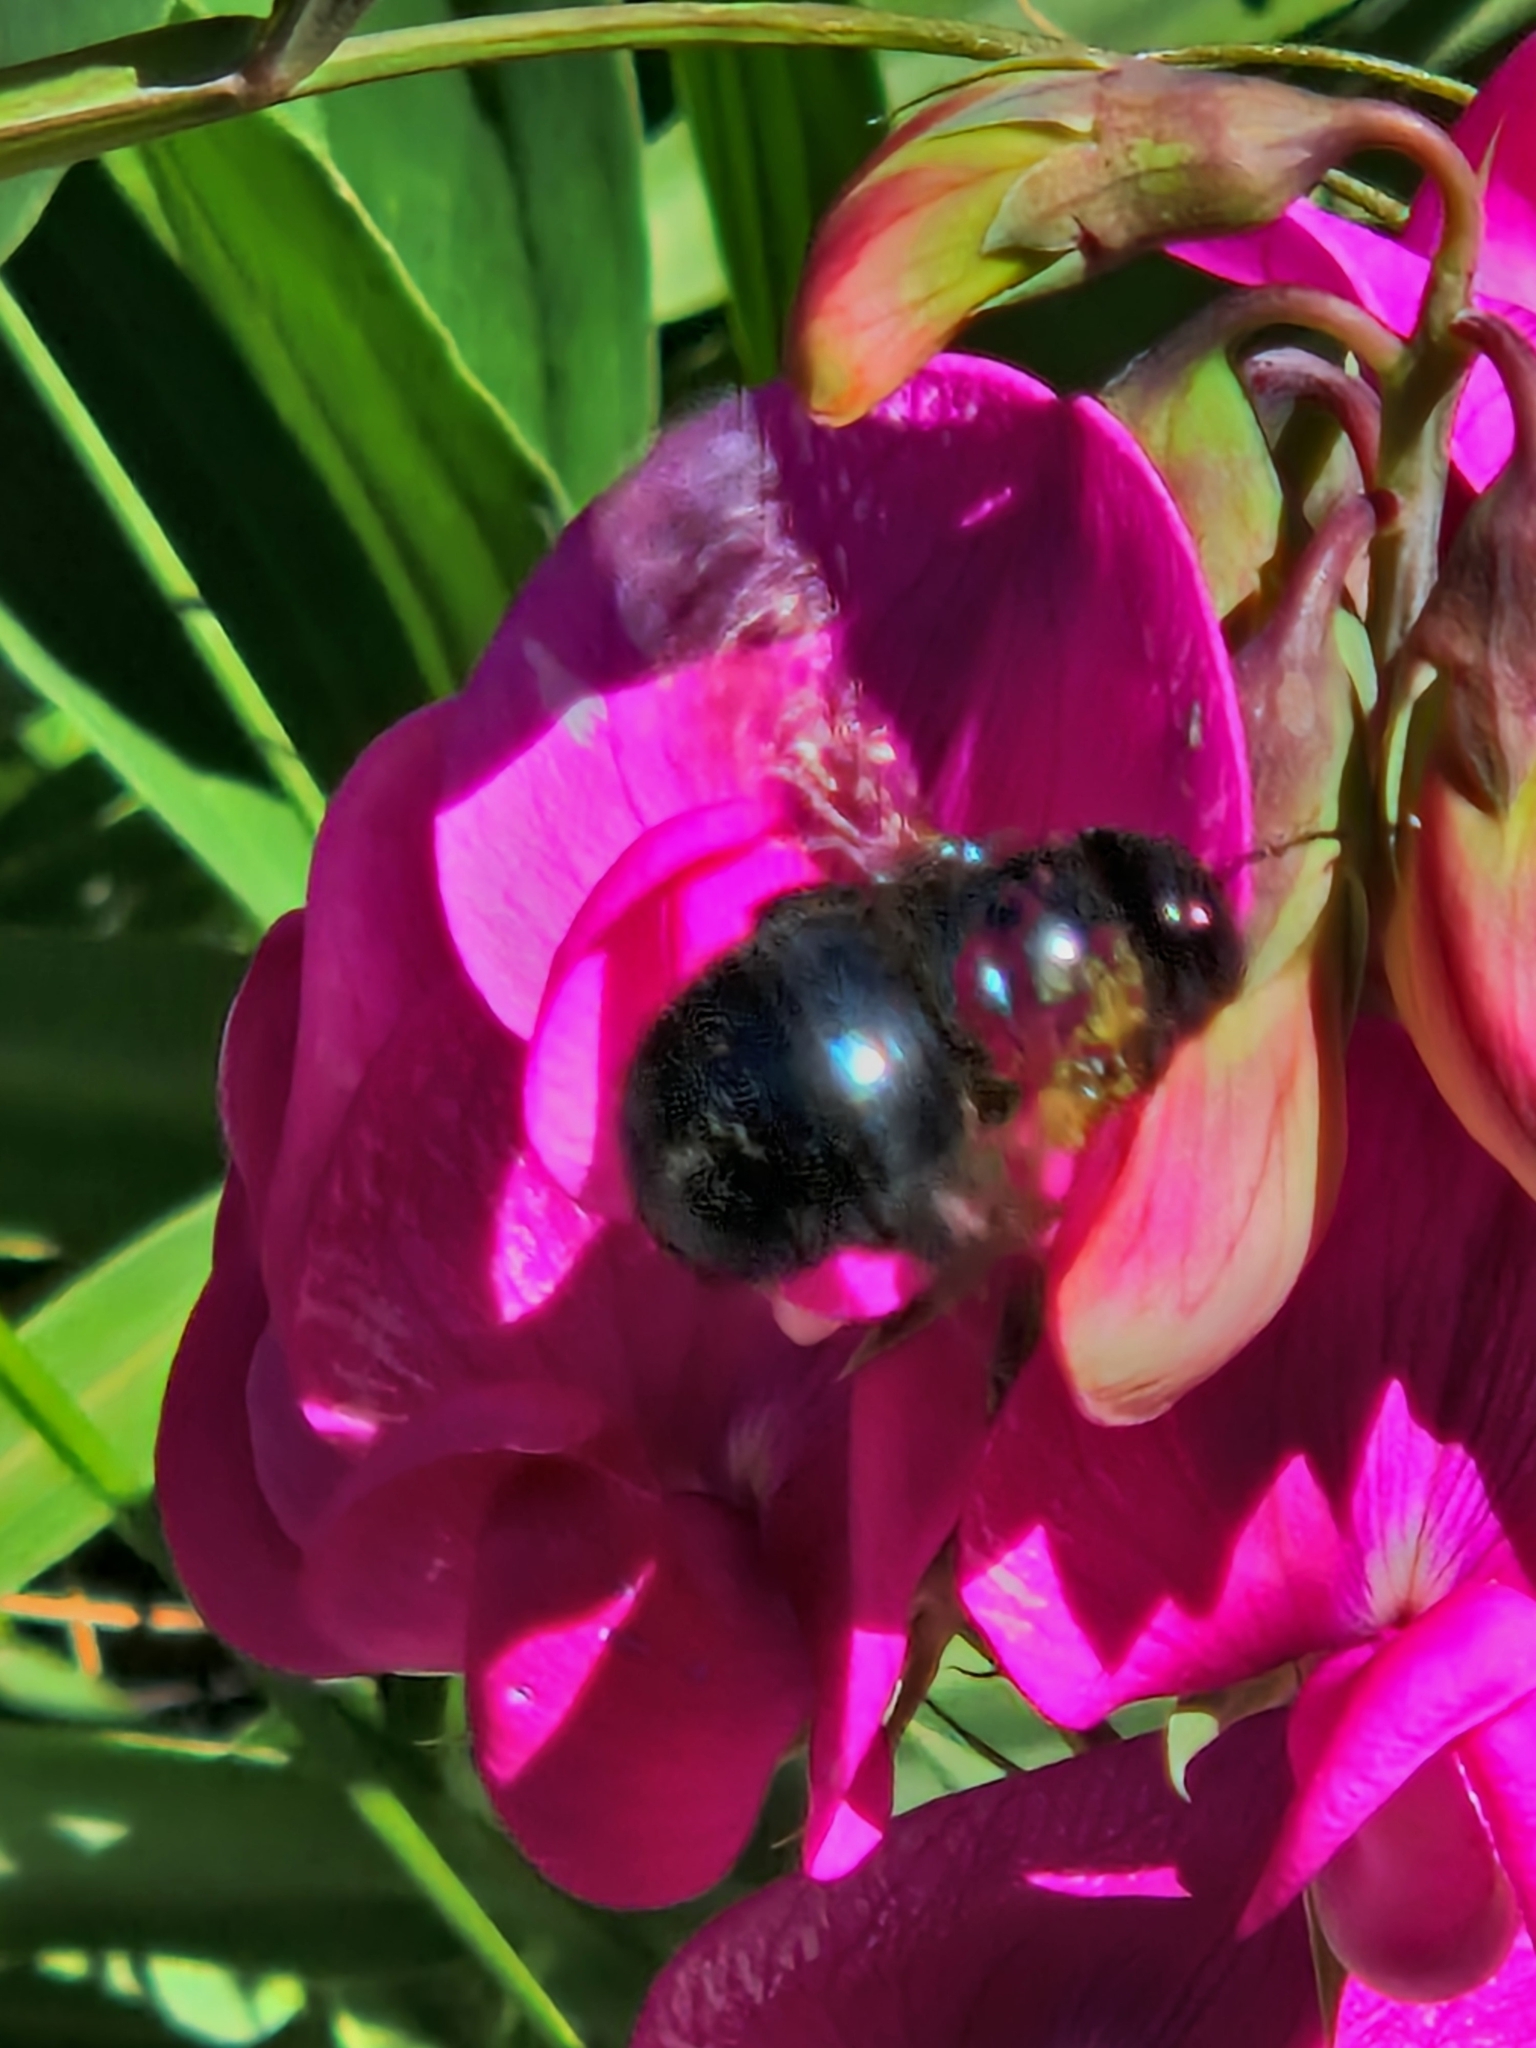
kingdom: Animalia
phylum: Arthropoda
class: Insecta
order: Hymenoptera
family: Apidae
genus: Xylocopa
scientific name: Xylocopa splendidula
